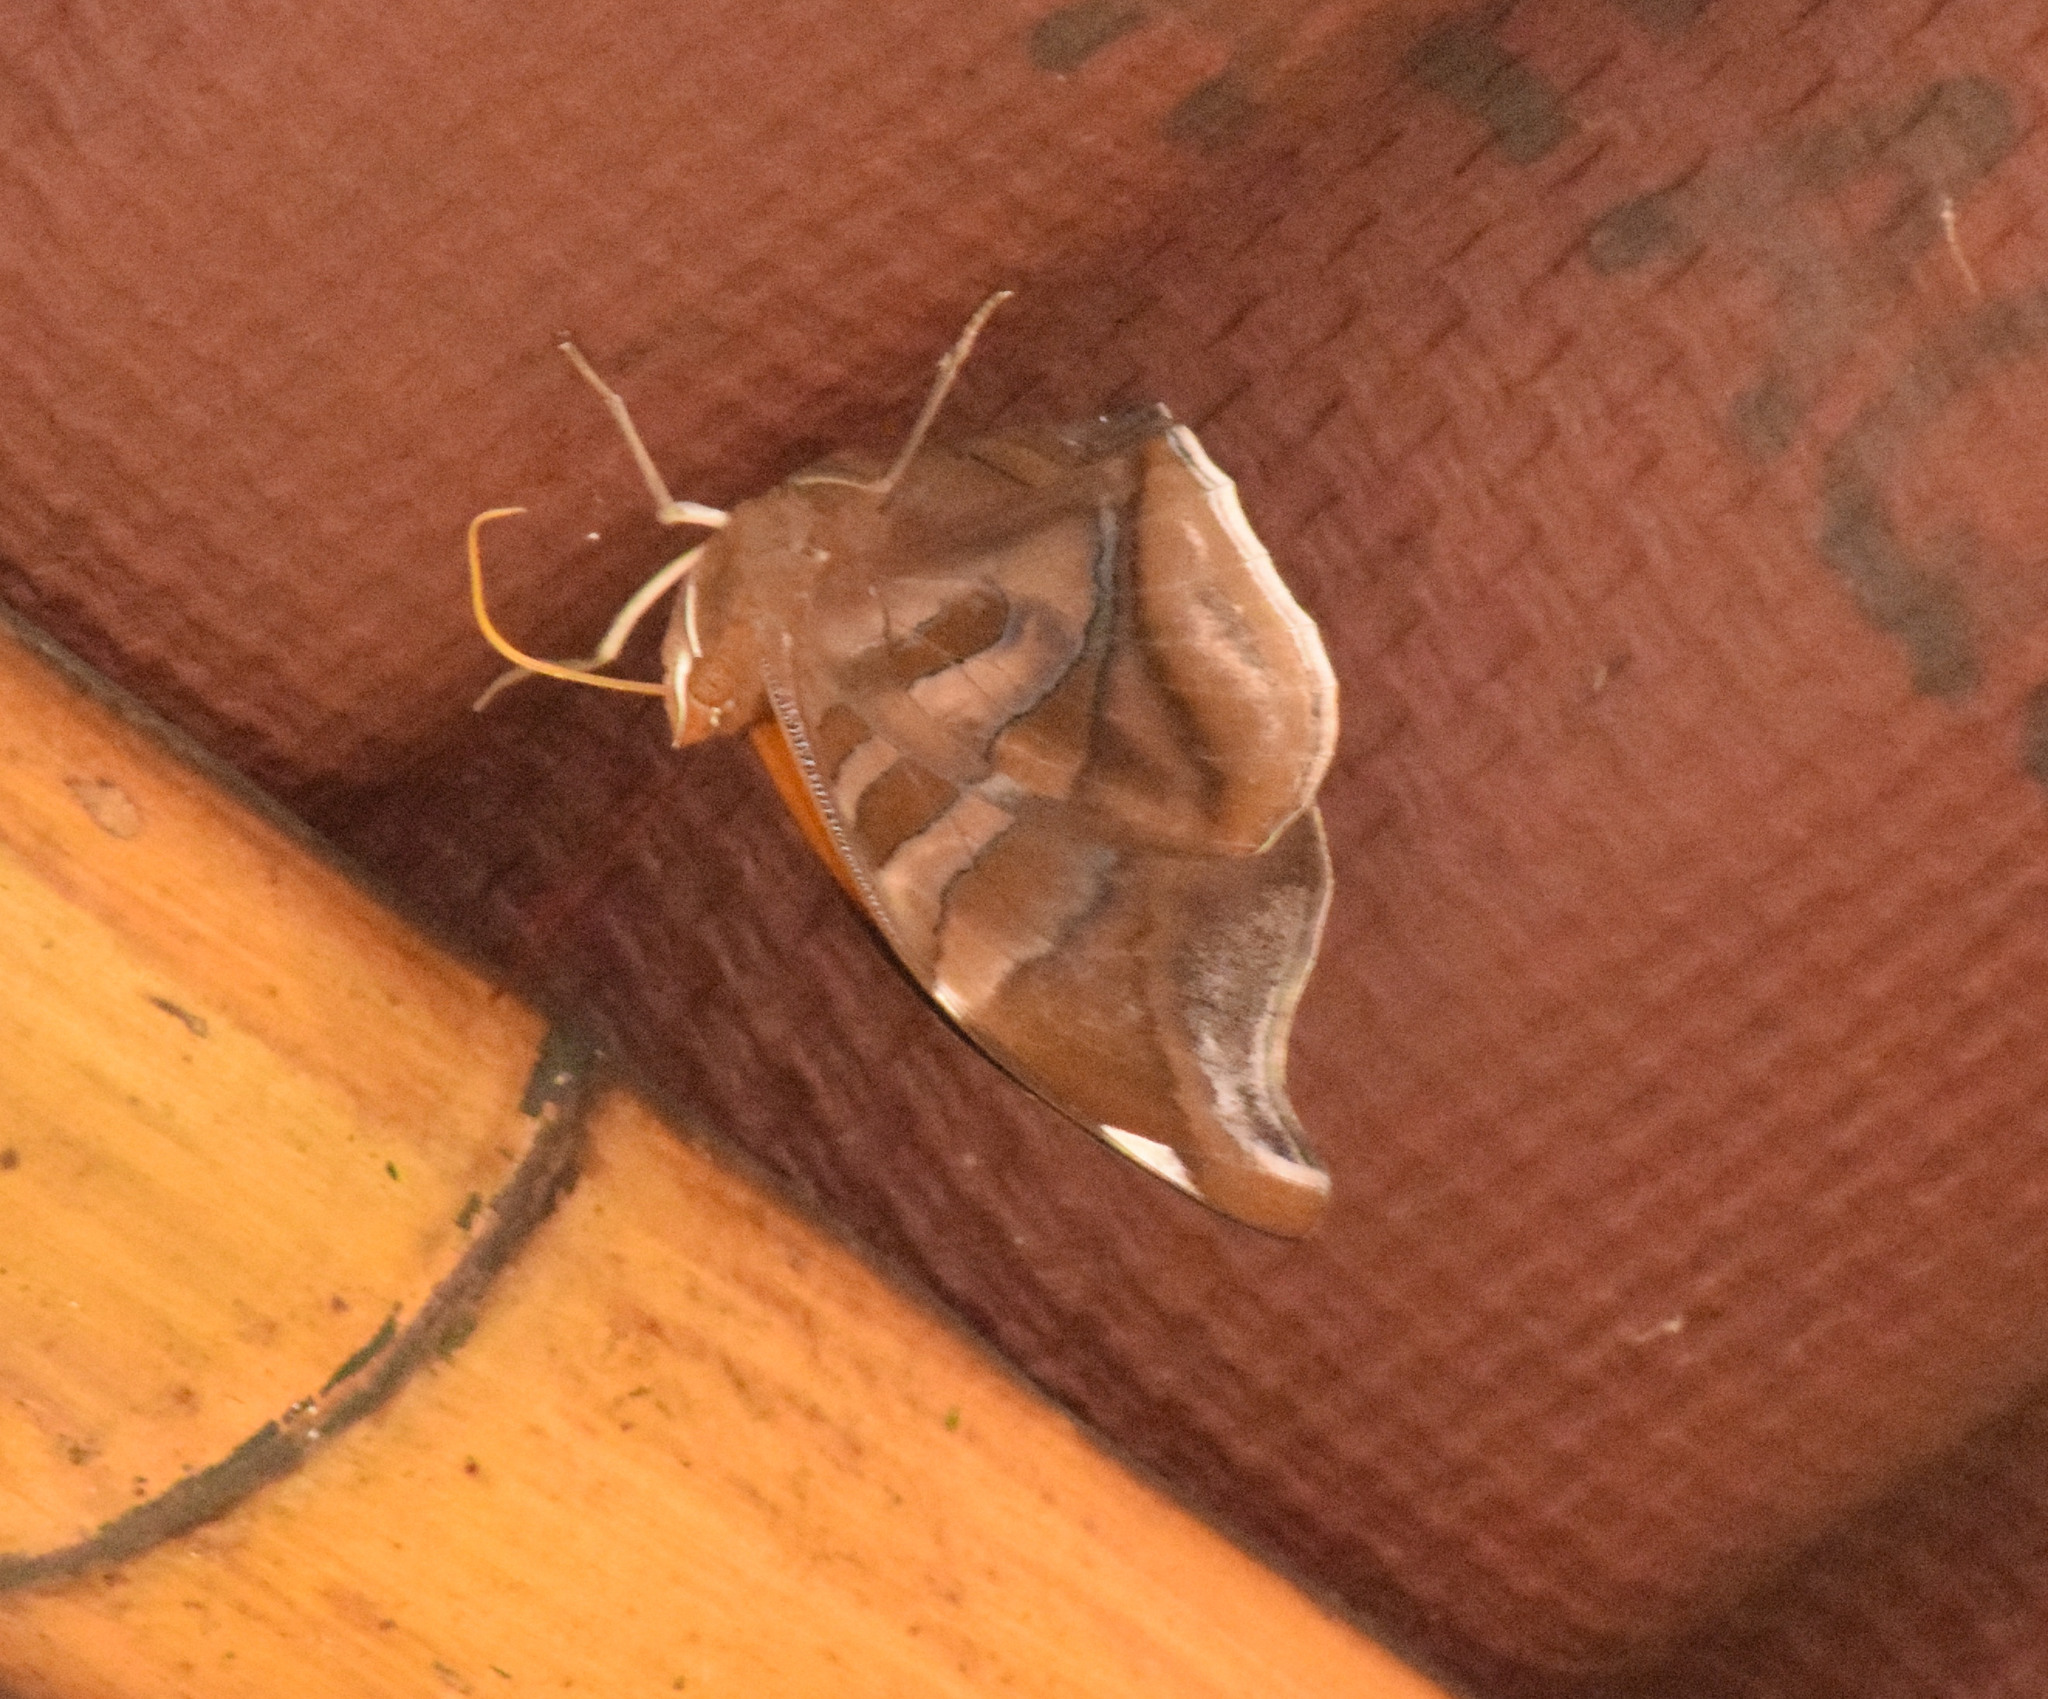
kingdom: Animalia
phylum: Arthropoda
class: Insecta
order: Lepidoptera
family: Nymphalidae
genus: Historis
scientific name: Historis odius
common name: Orion cecropian
